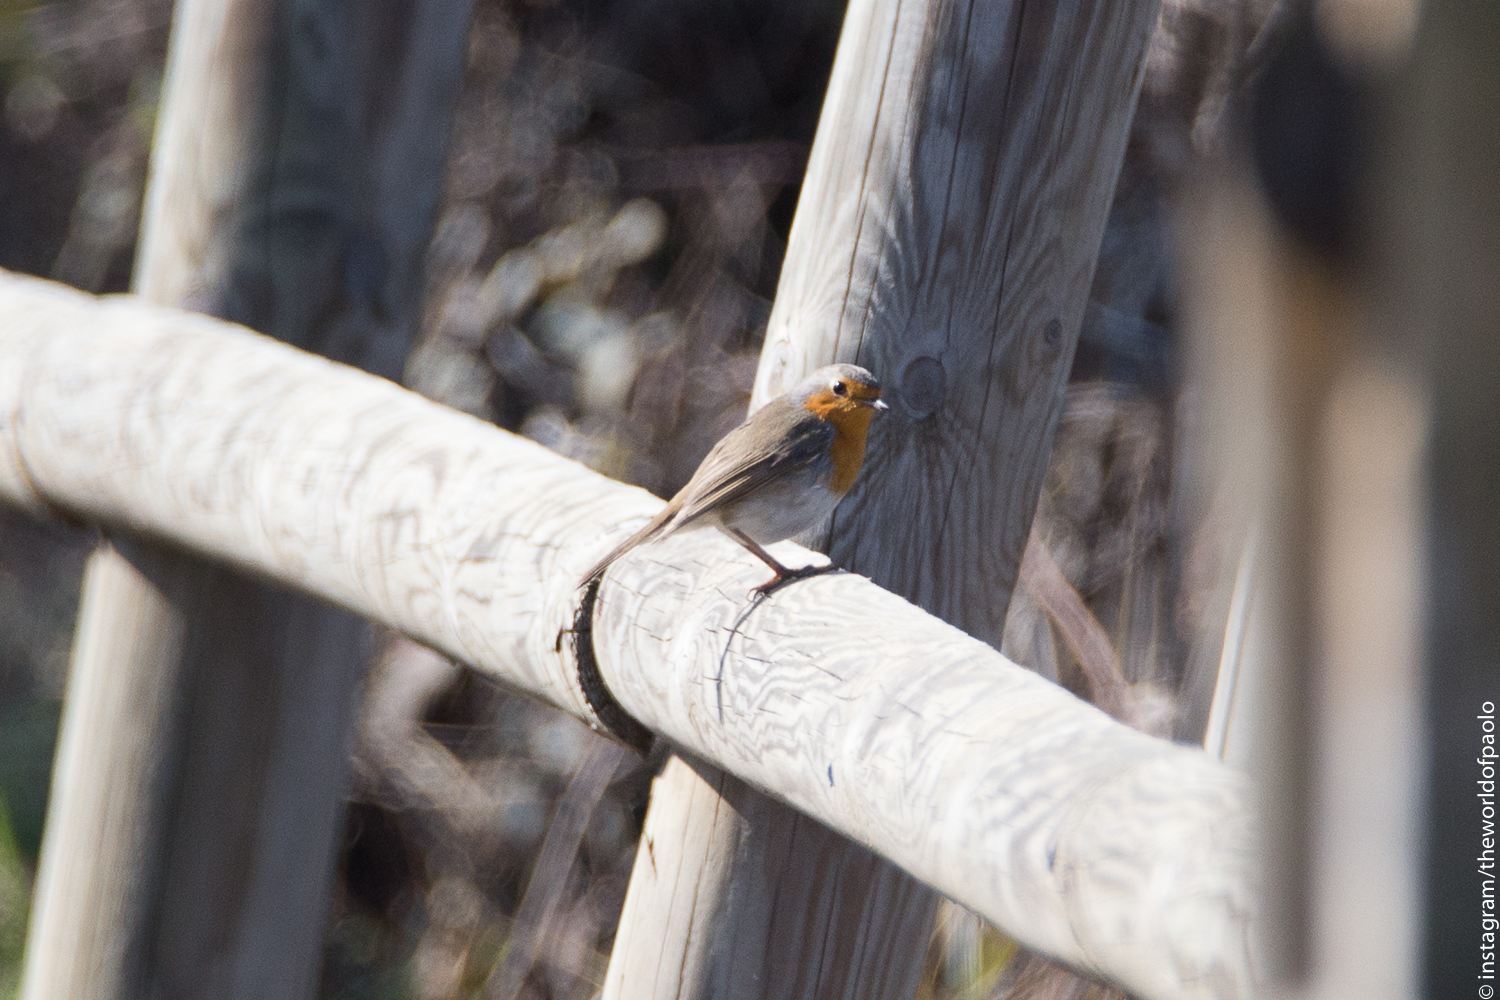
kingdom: Animalia
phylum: Chordata
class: Aves
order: Passeriformes
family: Muscicapidae
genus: Erithacus
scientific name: Erithacus rubecula
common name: European robin
